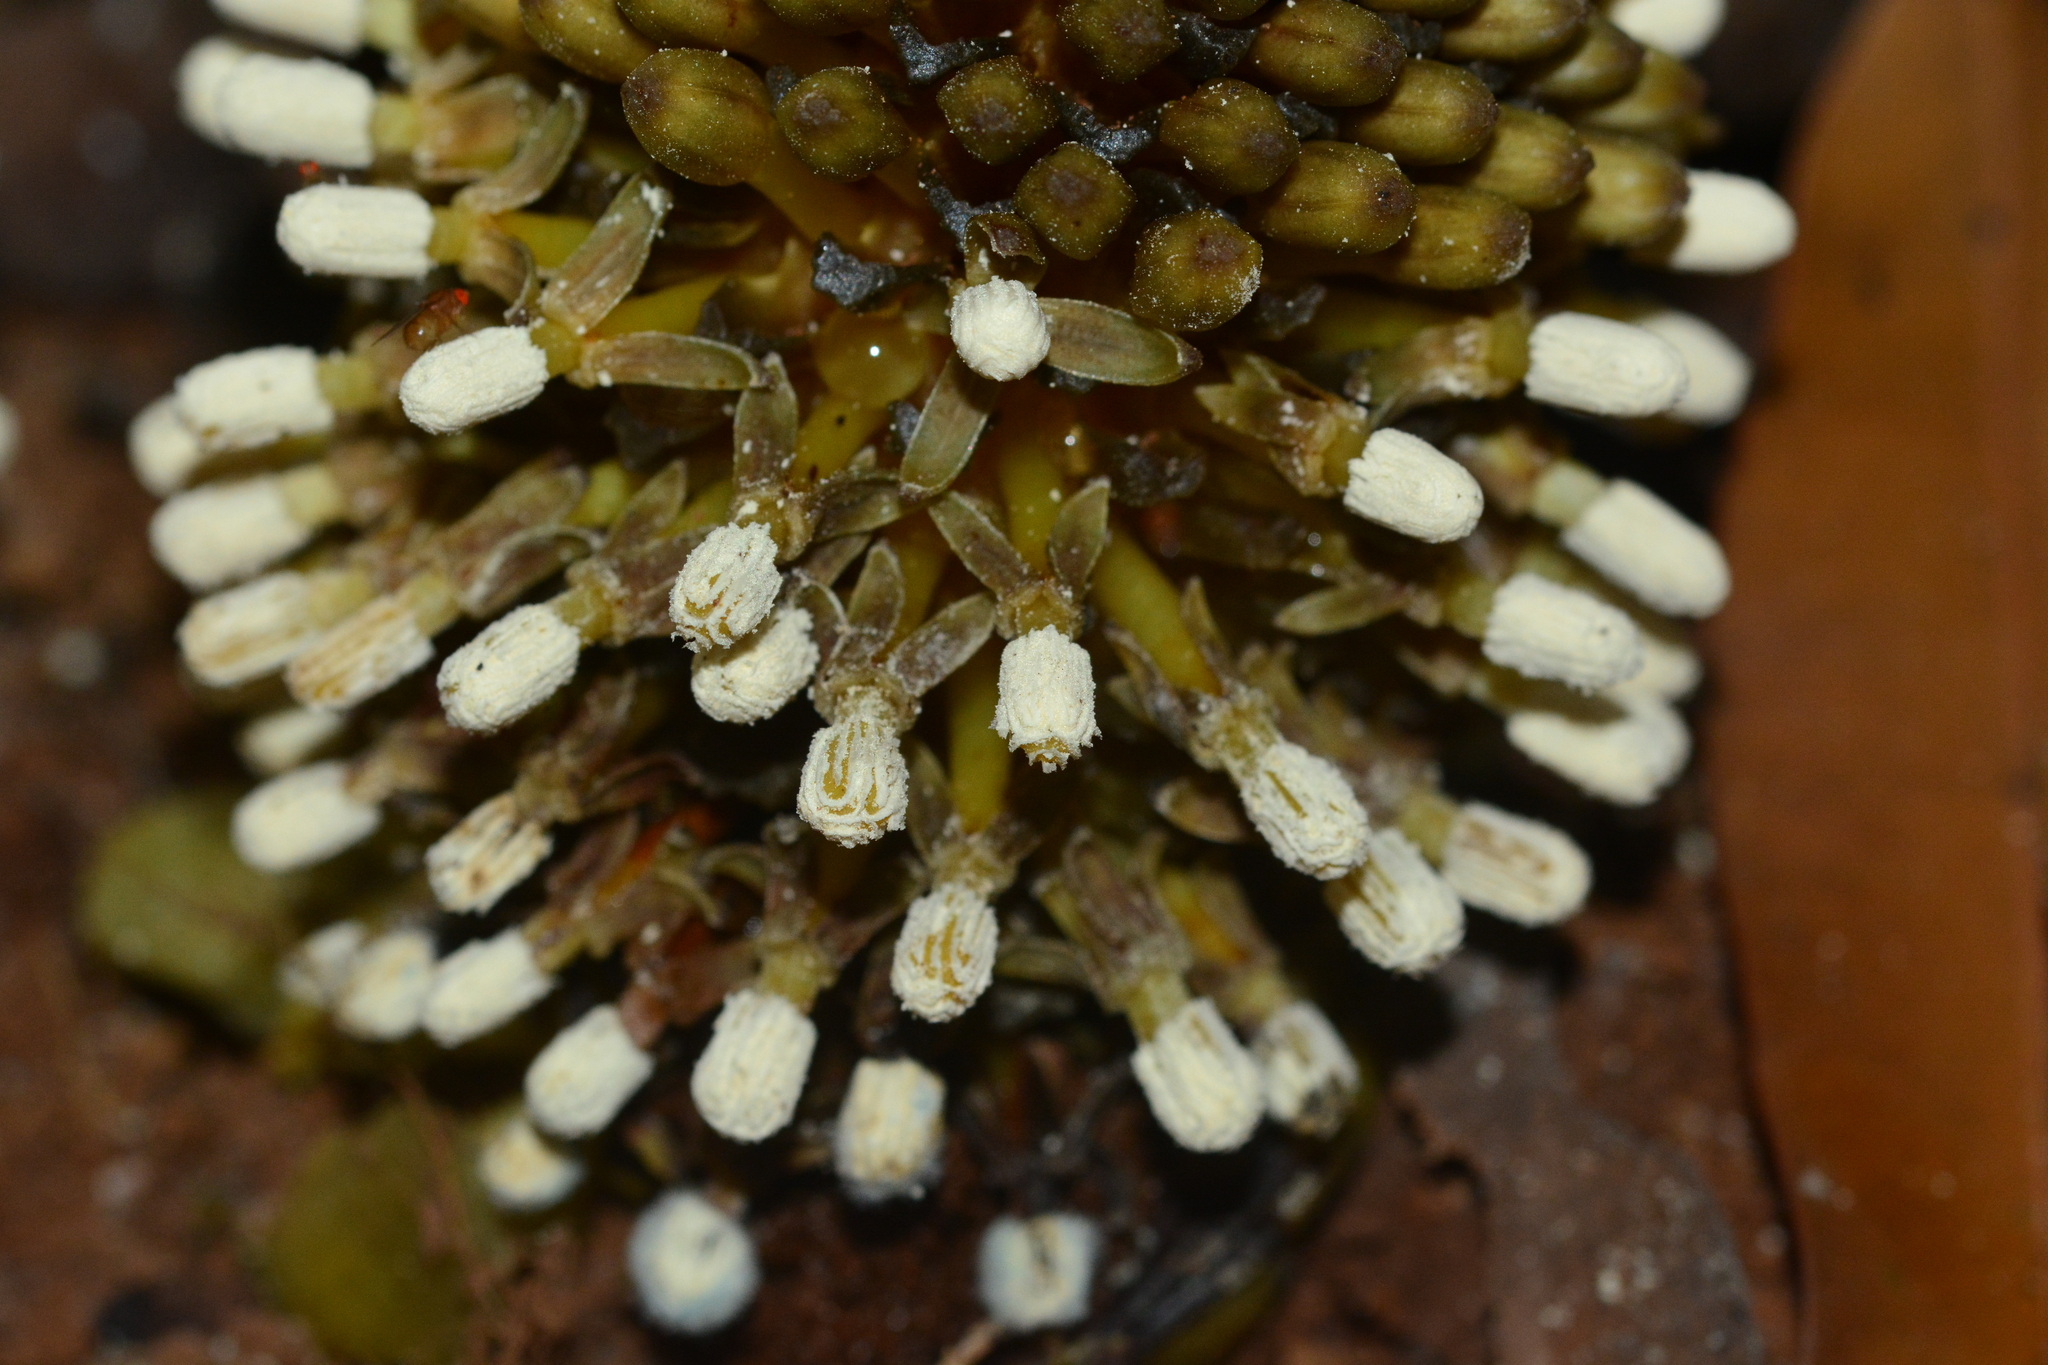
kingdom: Plantae
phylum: Tracheophyta
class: Magnoliopsida
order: Santalales
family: Balanophoraceae
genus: Balanophora
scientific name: Balanophora fungosa
